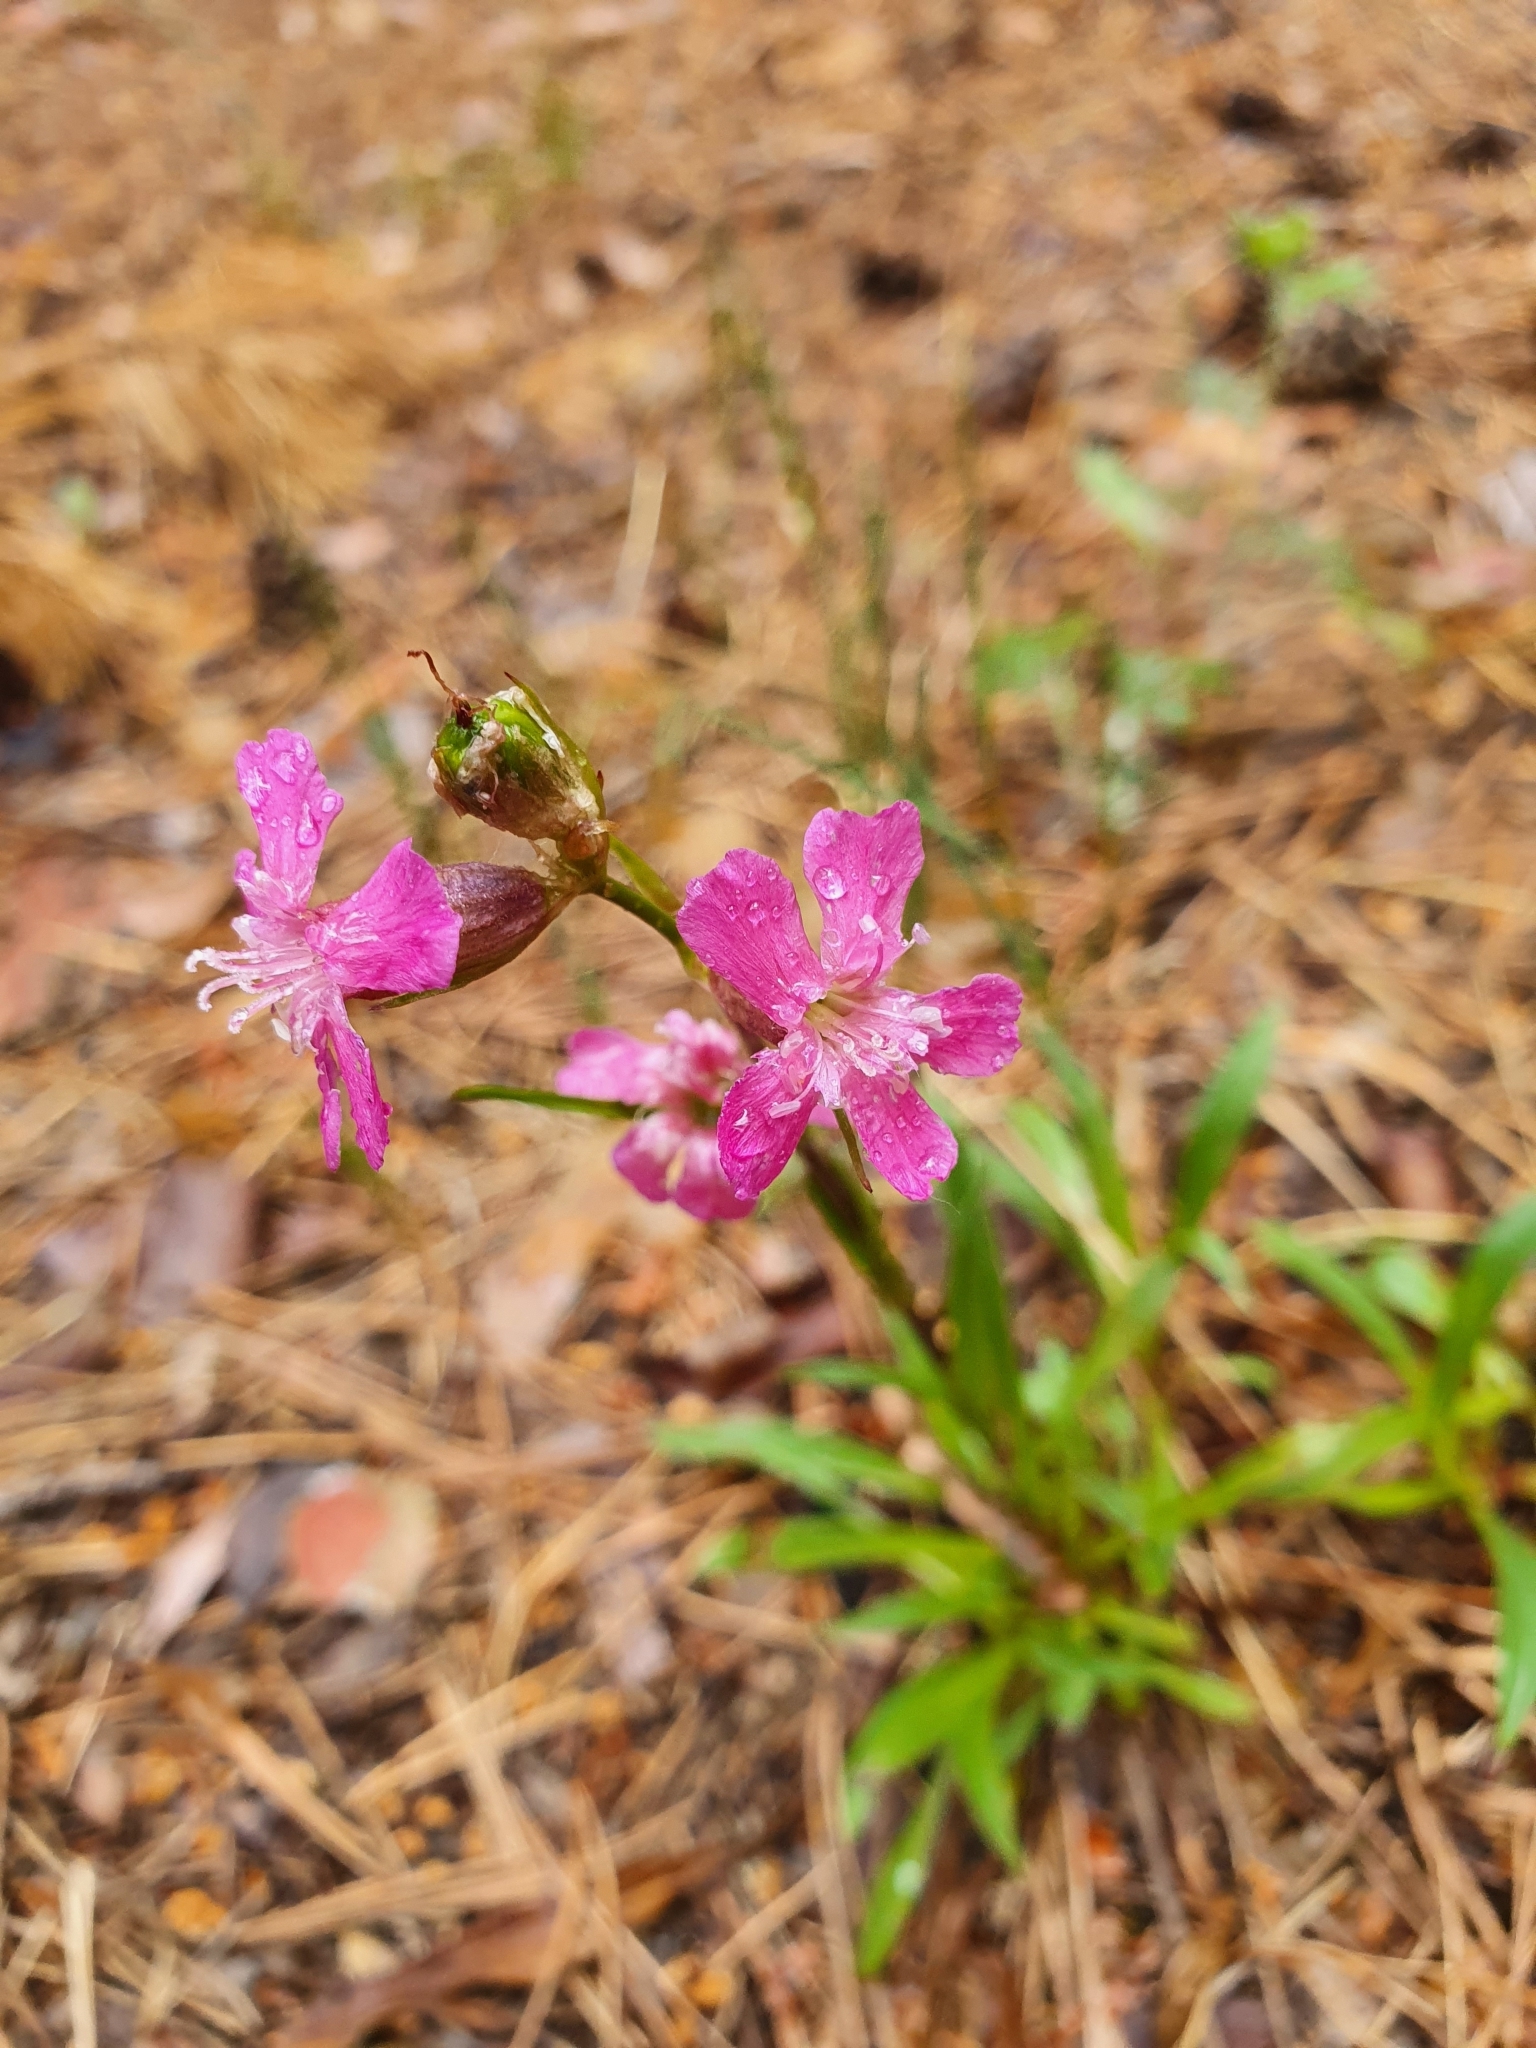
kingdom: Plantae
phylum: Tracheophyta
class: Magnoliopsida
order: Caryophyllales
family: Caryophyllaceae
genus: Viscaria
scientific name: Viscaria vulgaris
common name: Clammy campion
